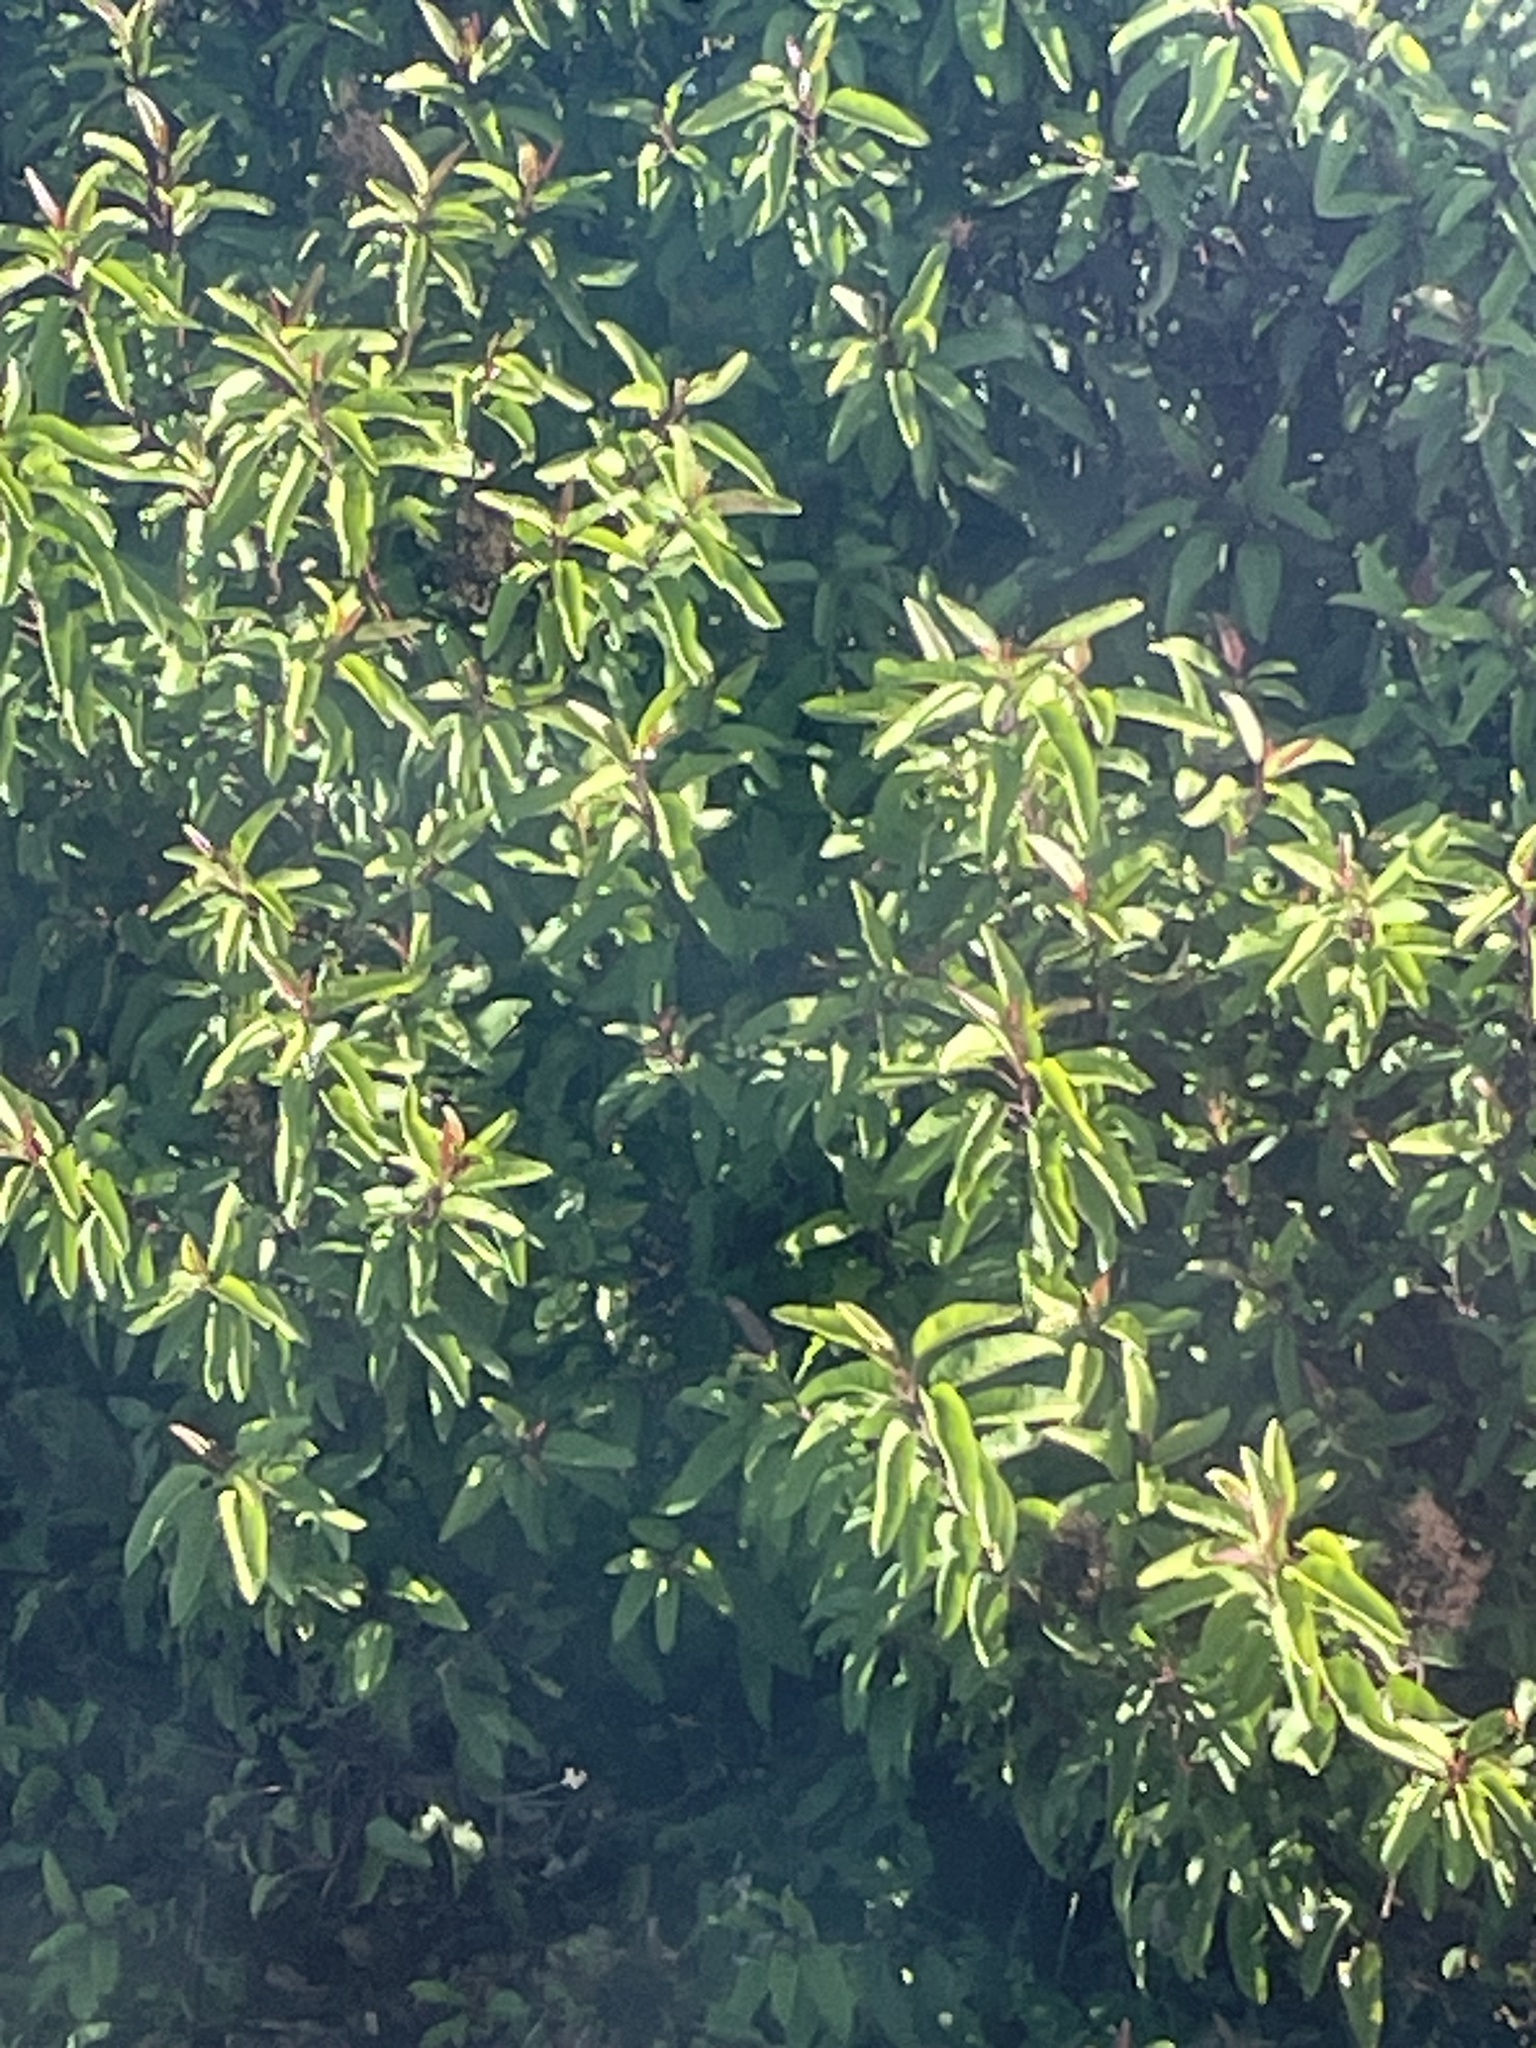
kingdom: Plantae
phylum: Tracheophyta
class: Magnoliopsida
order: Sapindales
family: Anacardiaceae
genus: Malosma
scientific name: Malosma laurina
